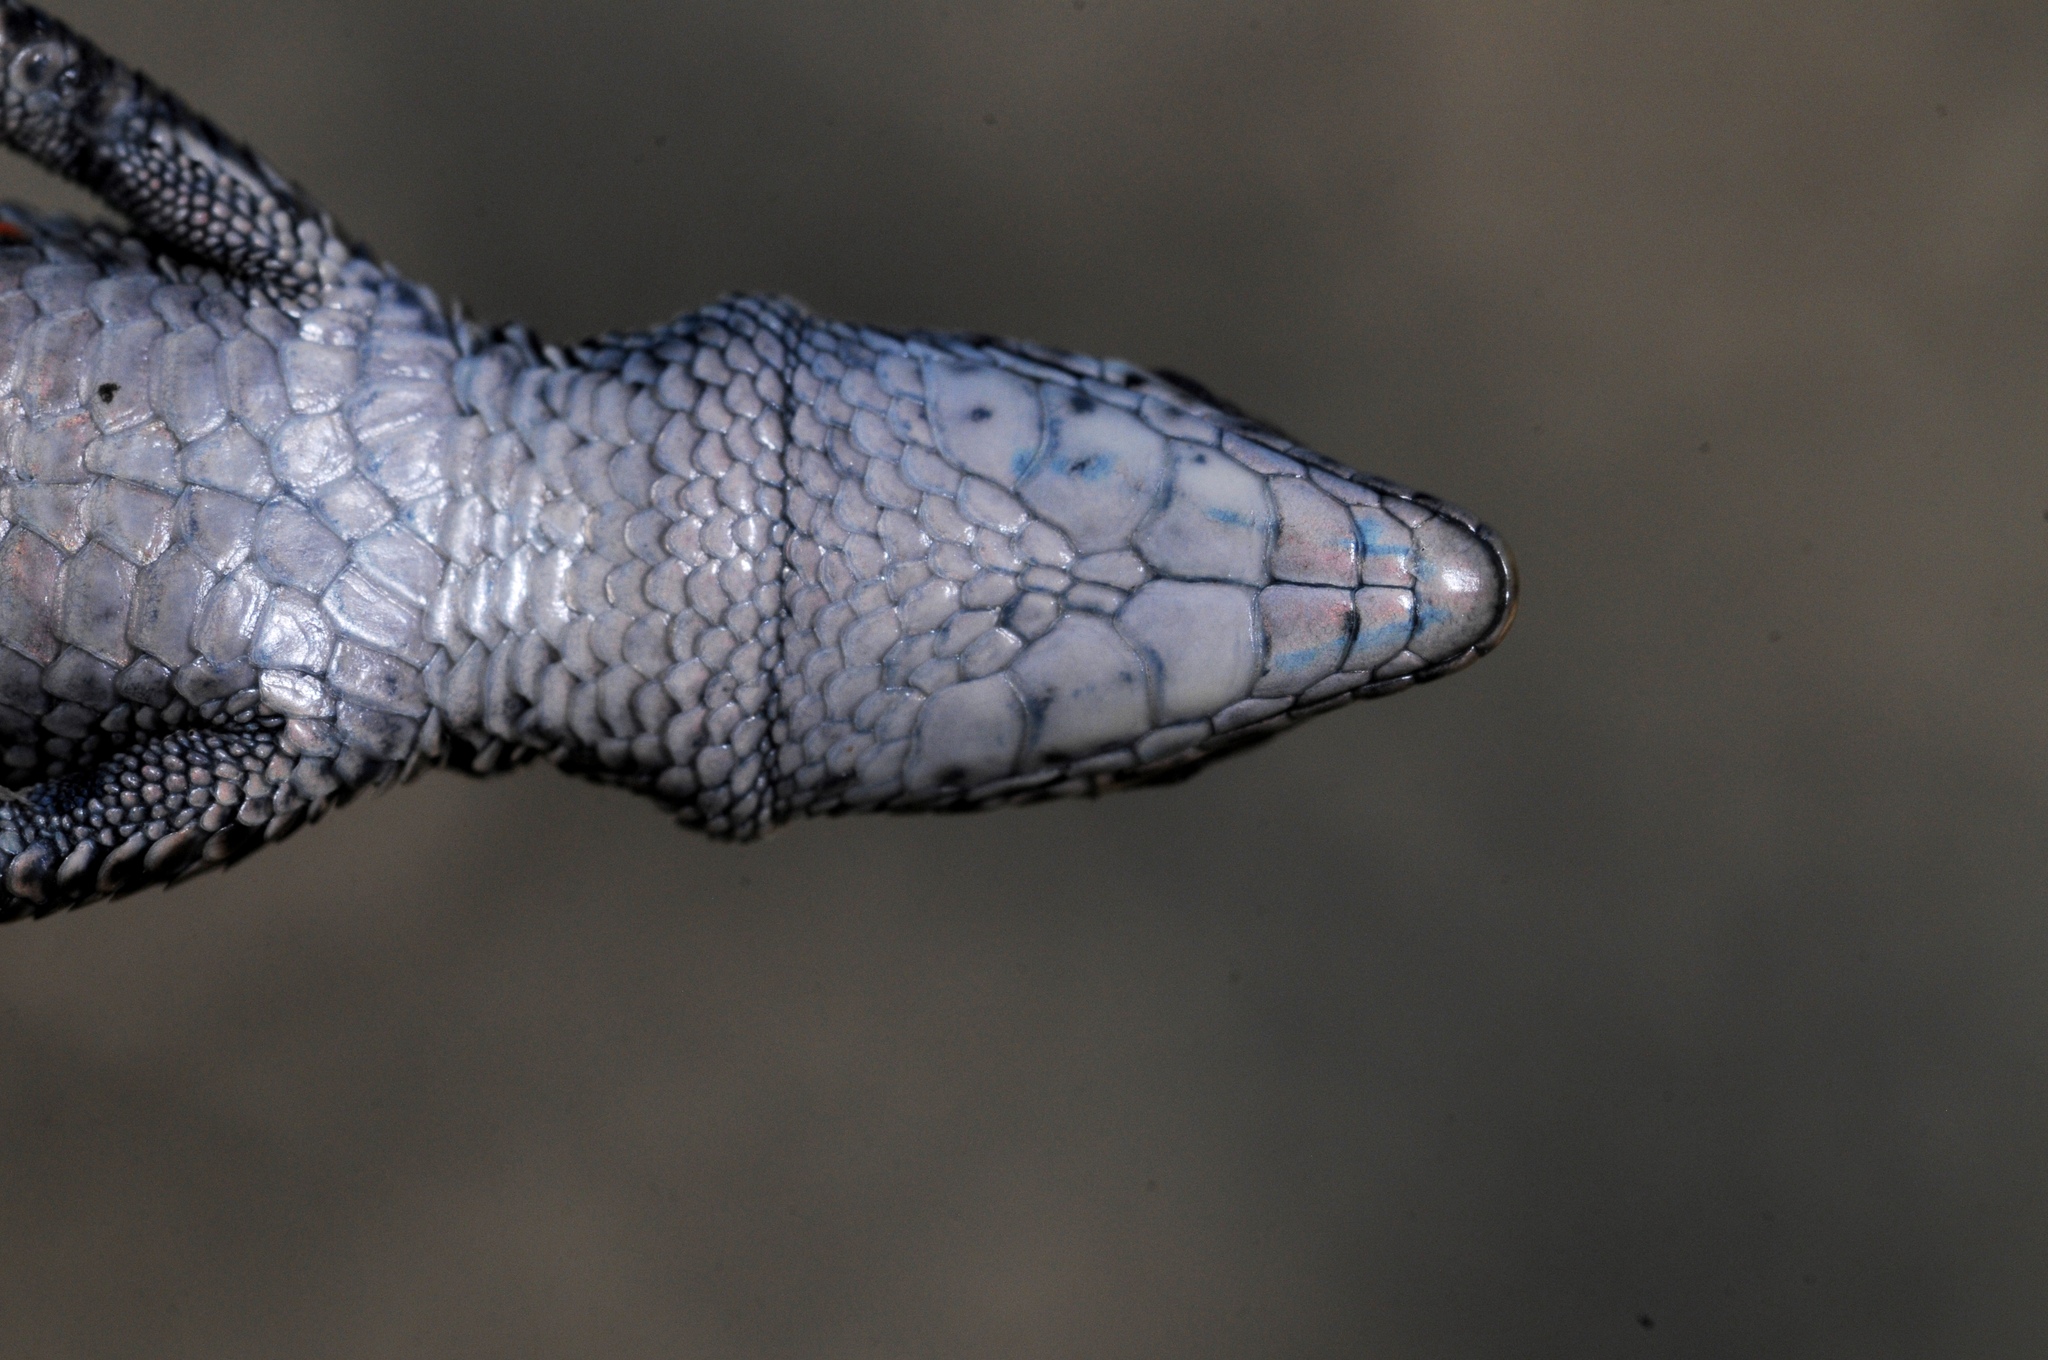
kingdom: Animalia
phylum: Chordata
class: Squamata
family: Lacertidae
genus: Tropidosaura
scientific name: Tropidosaura gularis
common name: Cape mountain lizard
